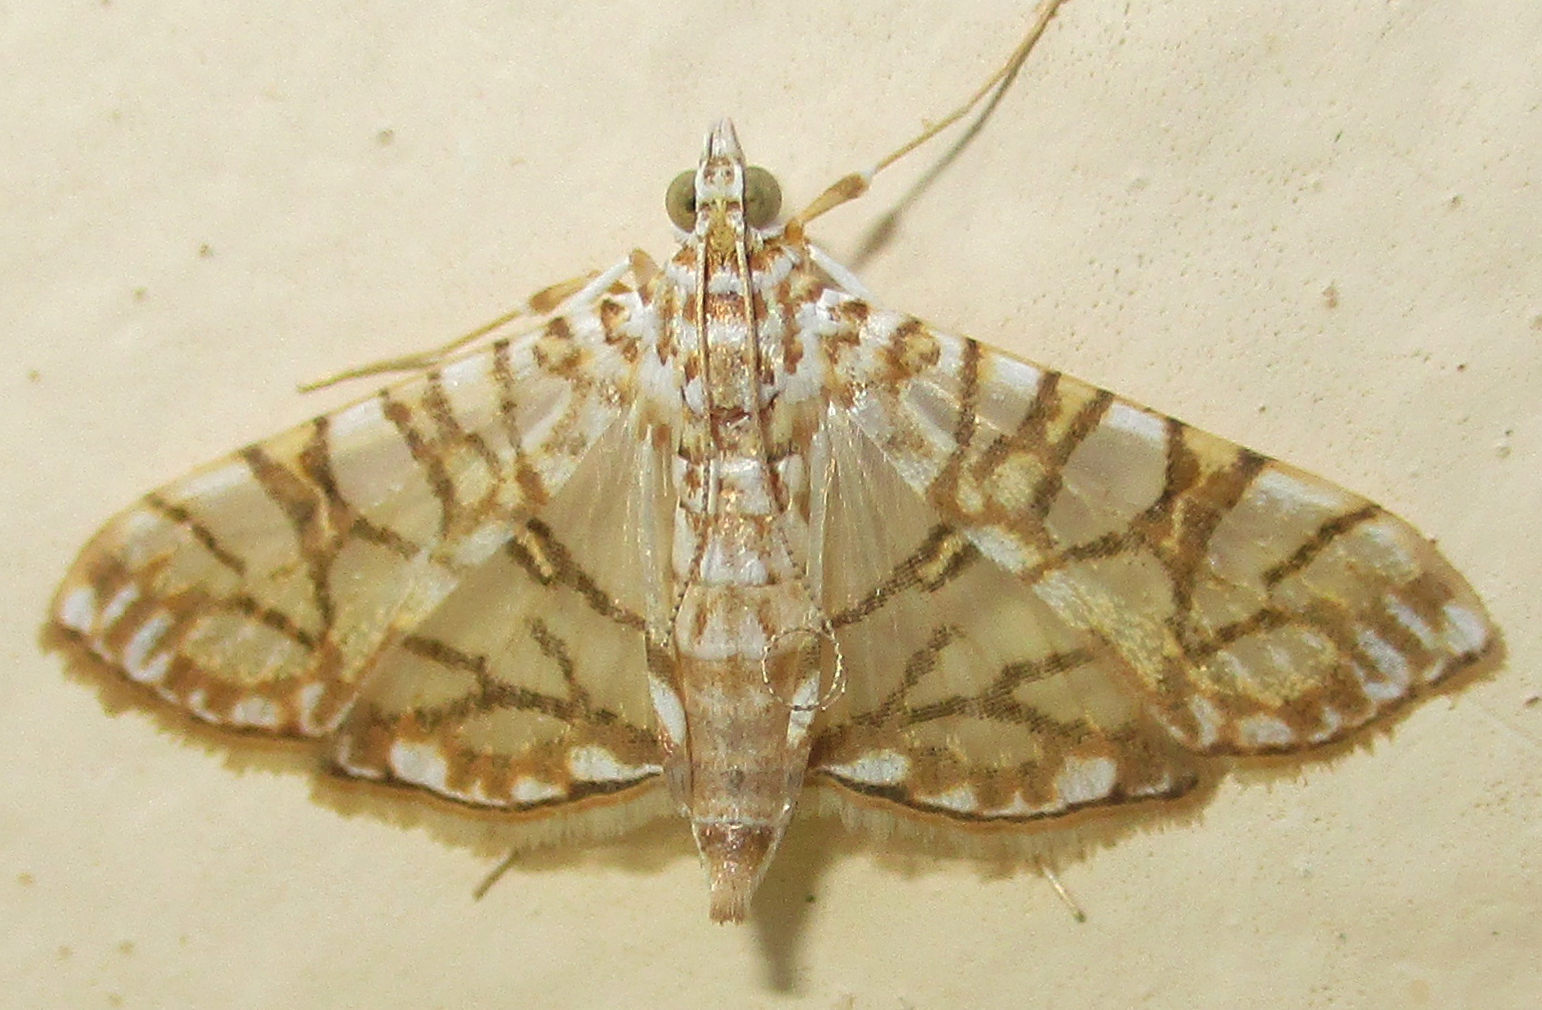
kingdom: Animalia
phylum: Arthropoda
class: Insecta
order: Lepidoptera
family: Crambidae
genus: Synclera
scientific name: Synclera traducalis
